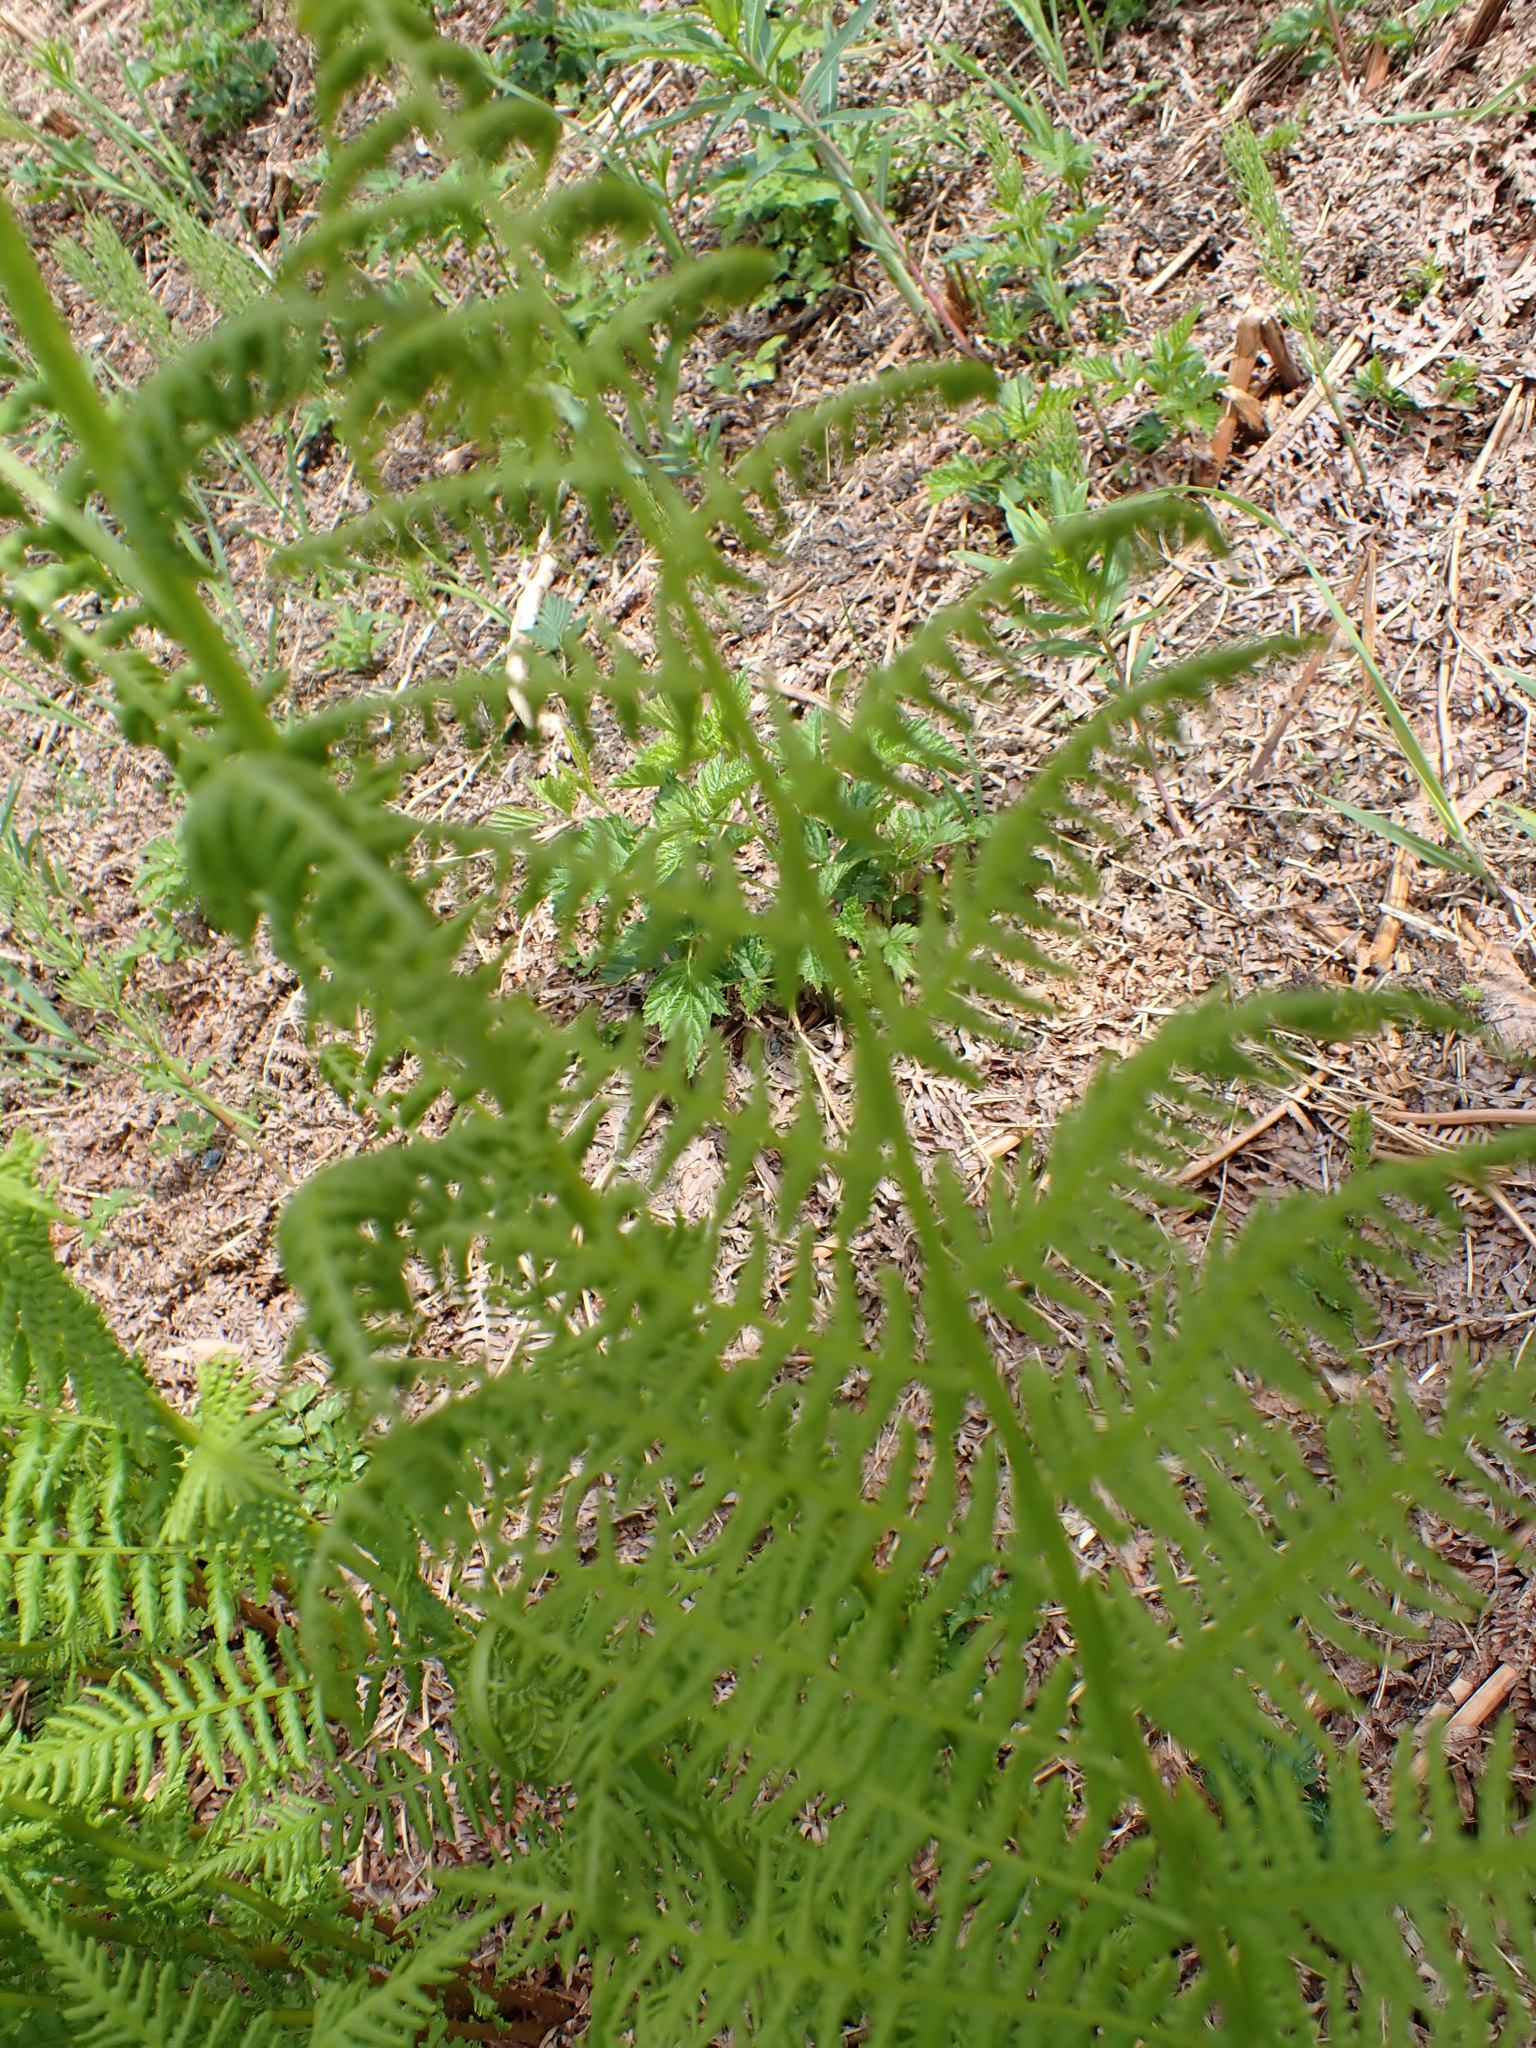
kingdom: Plantae
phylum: Tracheophyta
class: Polypodiopsida
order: Polypodiales
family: Athyriaceae
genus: Athyrium
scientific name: Athyrium filix-femina
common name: Lady fern
